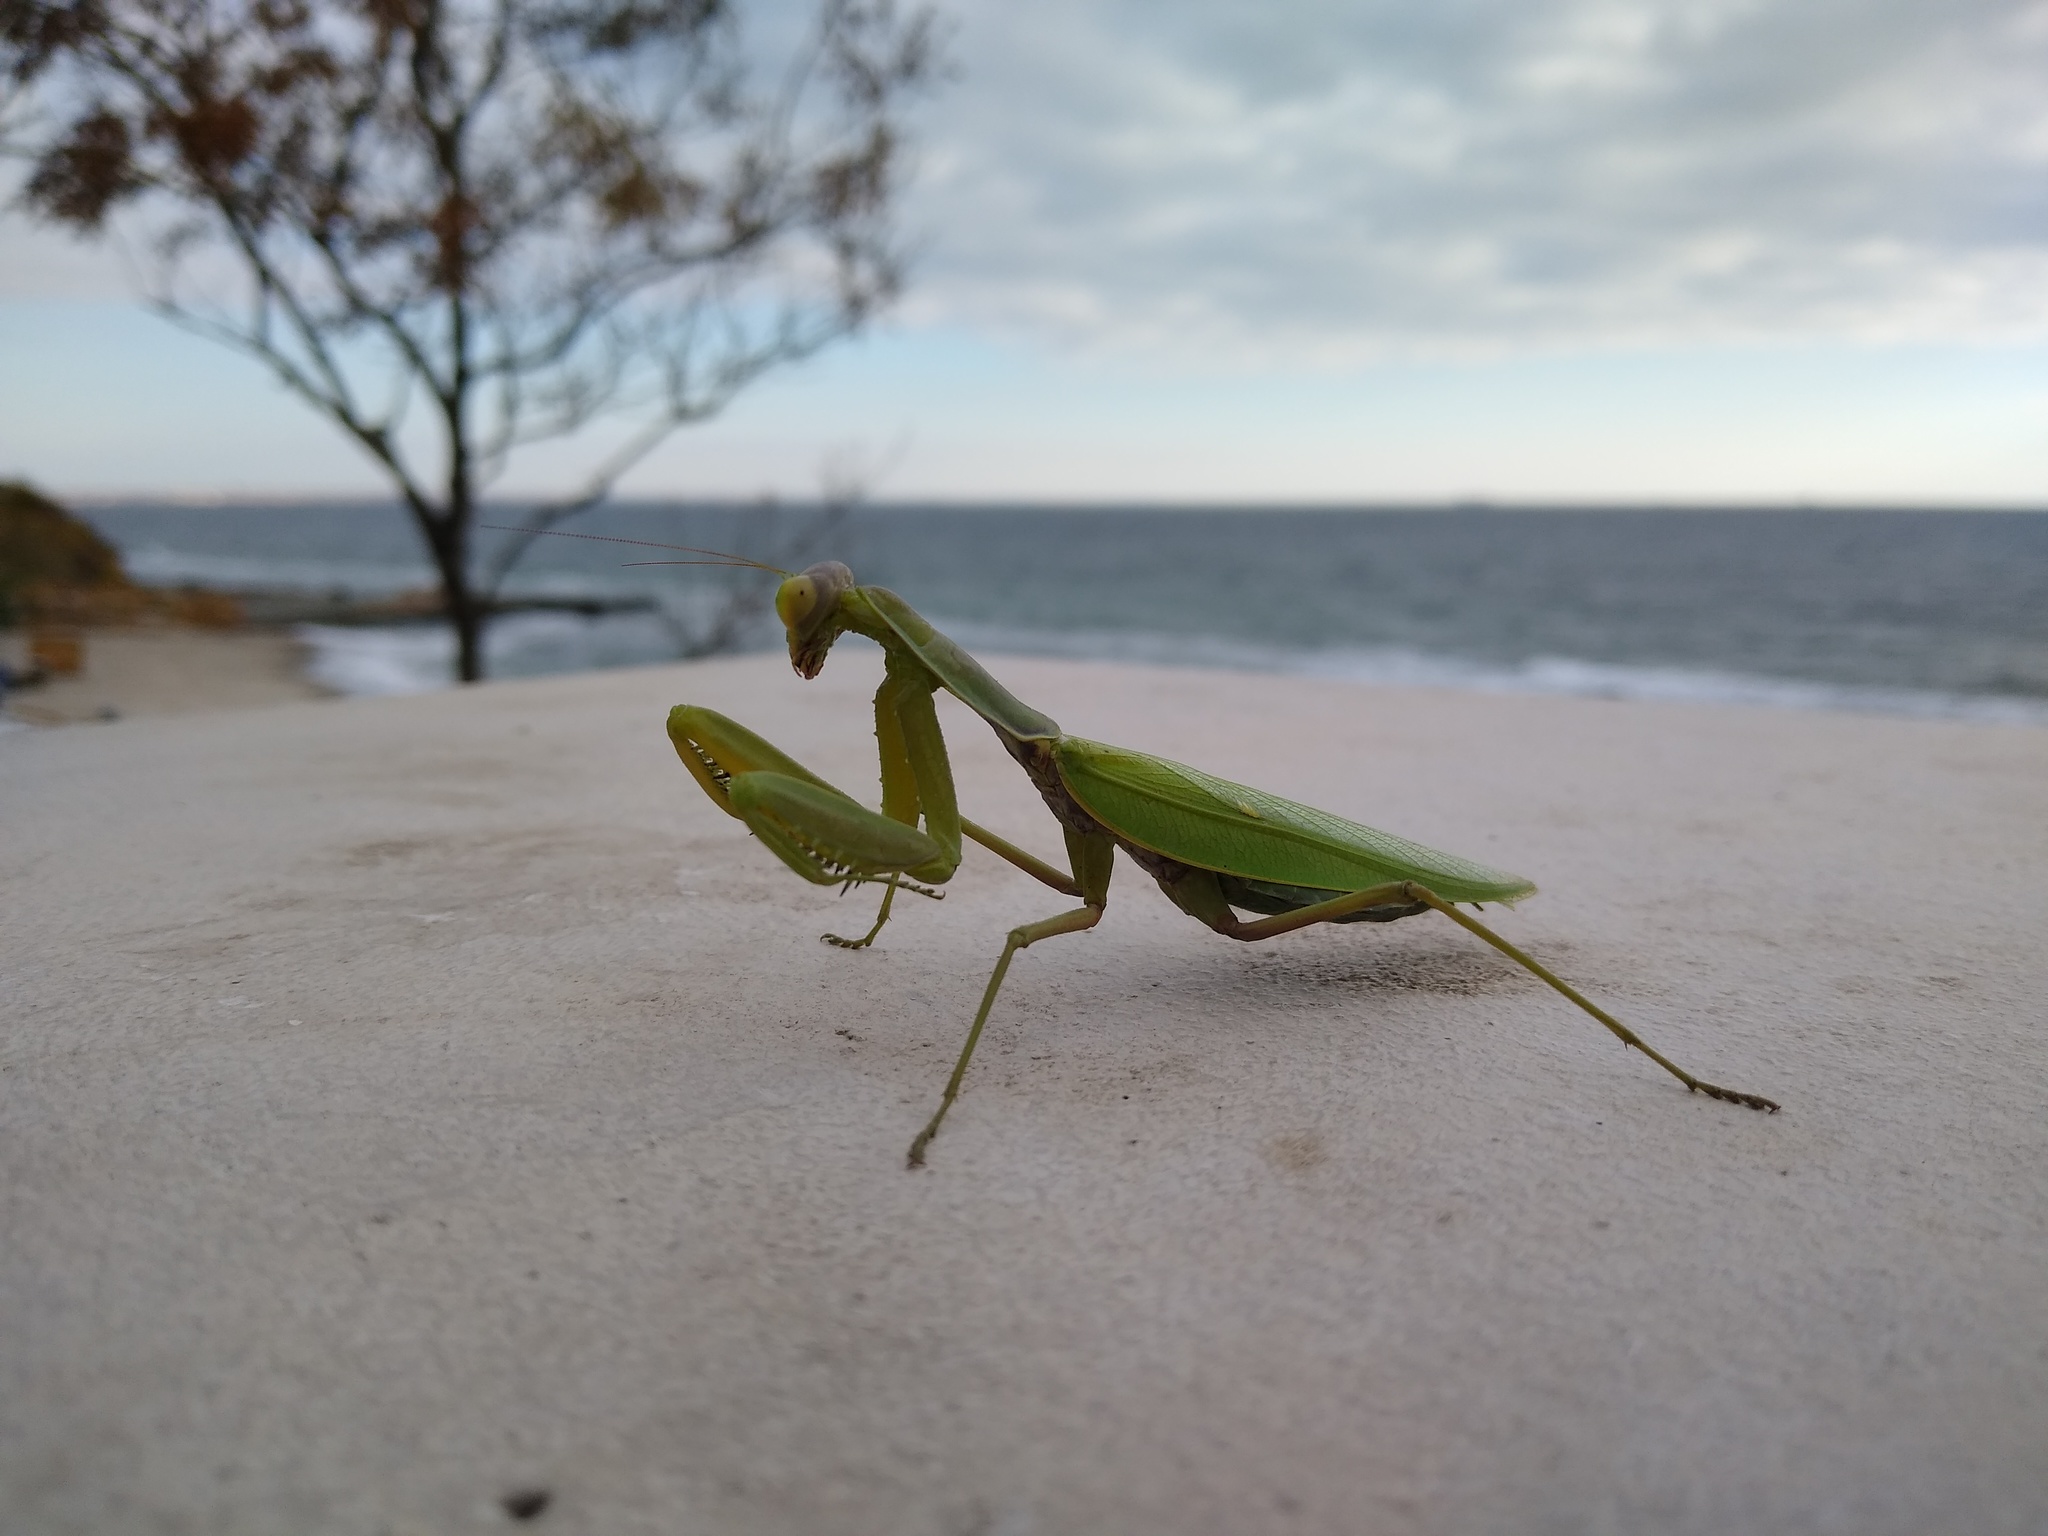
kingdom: Animalia
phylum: Arthropoda
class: Insecta
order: Mantodea
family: Mantidae
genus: Hierodula
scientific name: Hierodula transcaucasica
